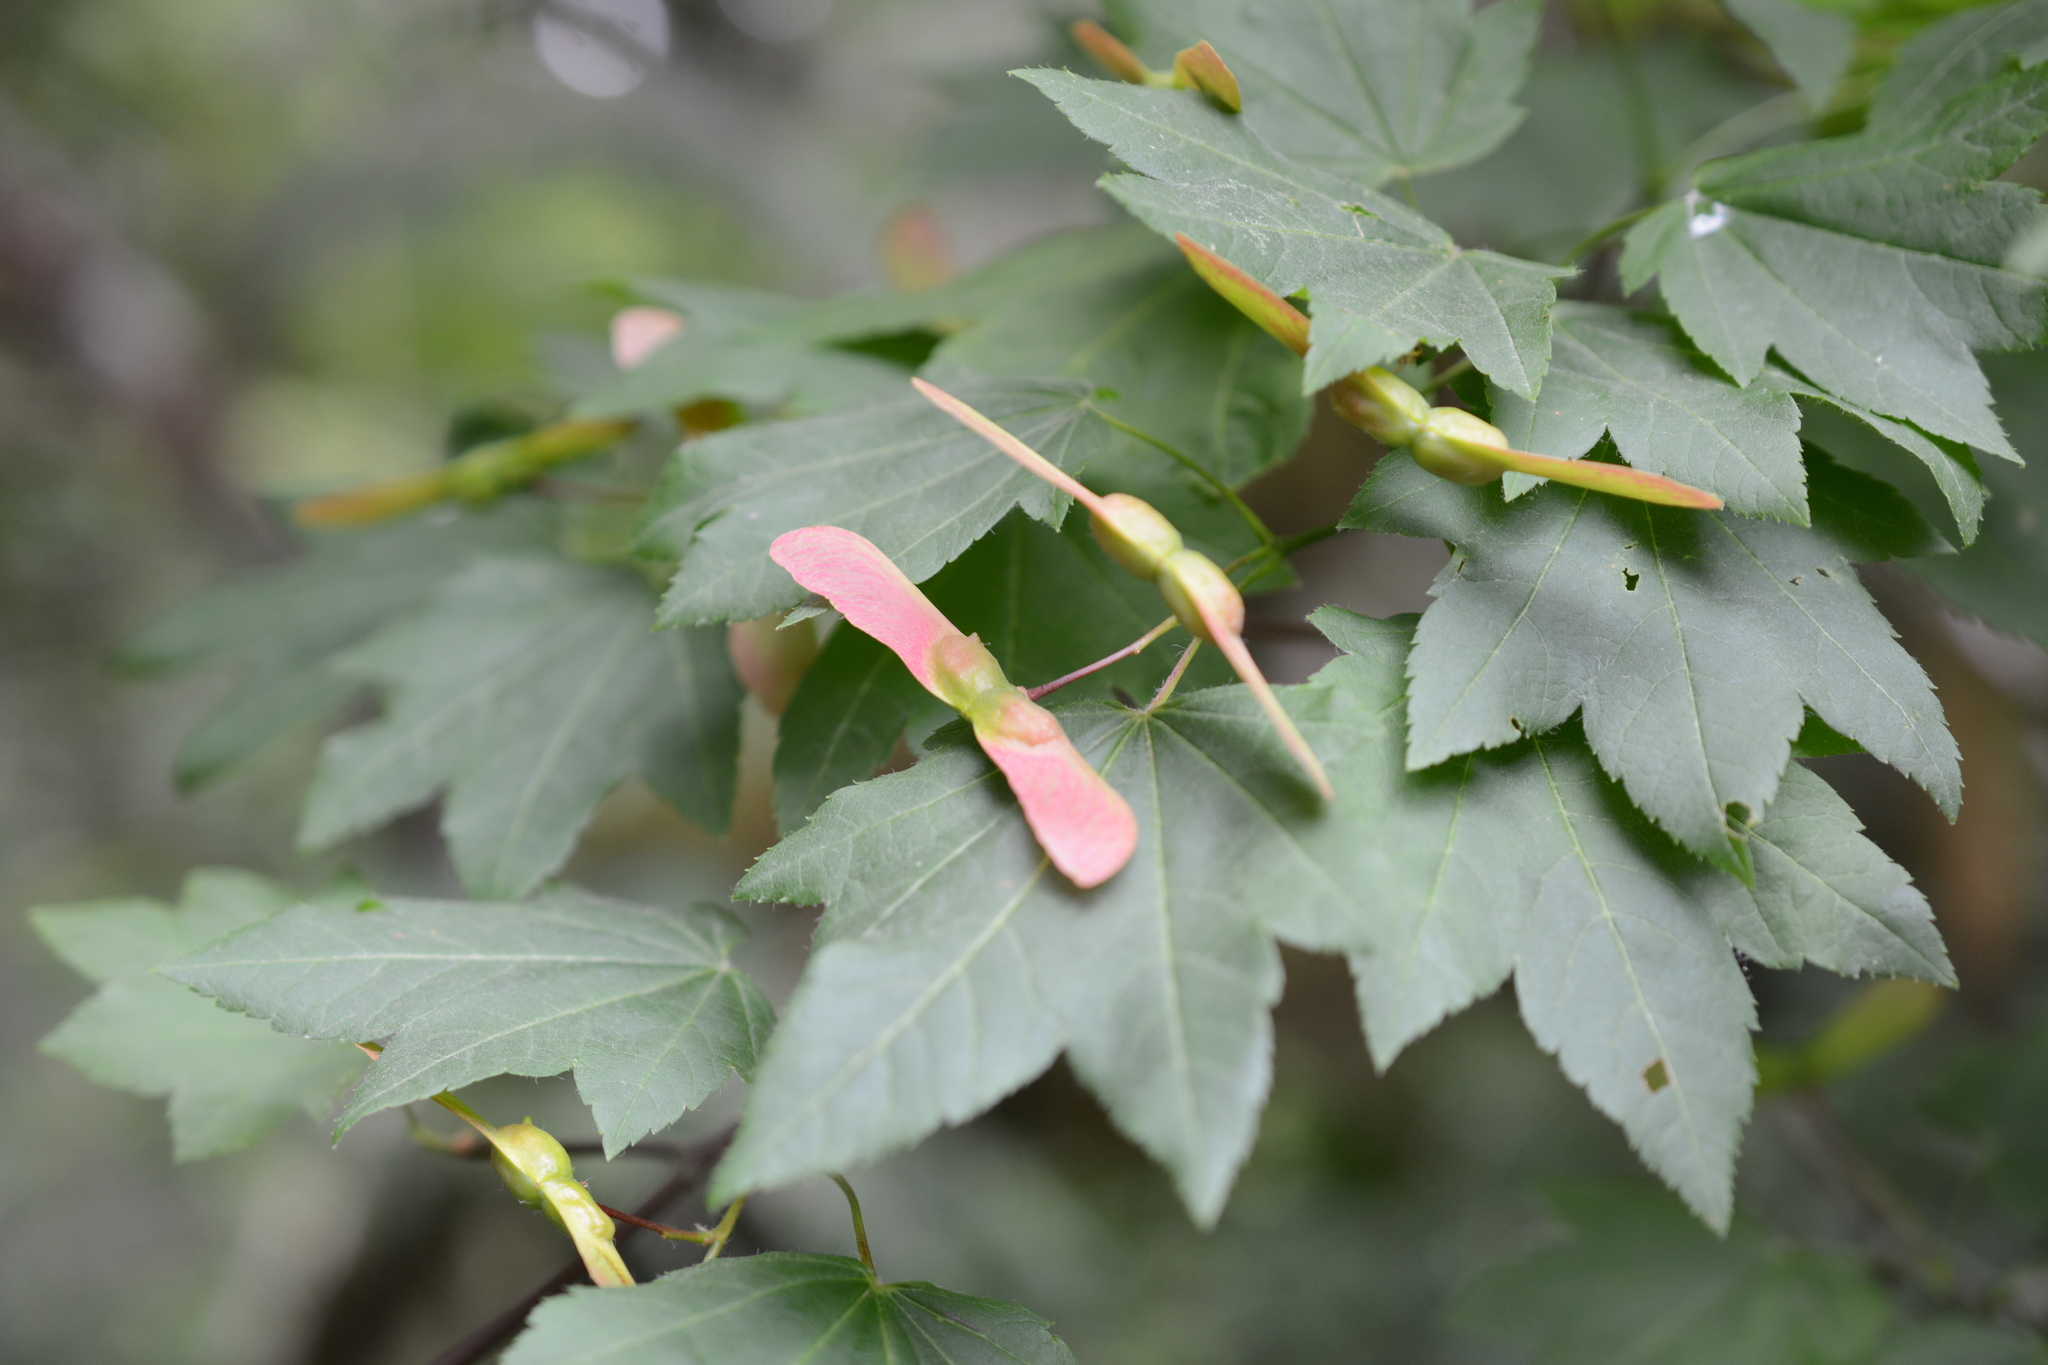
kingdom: Plantae
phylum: Tracheophyta
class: Magnoliopsida
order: Sapindales
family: Sapindaceae
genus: Acer
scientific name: Acer circinatum
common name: Vine maple
